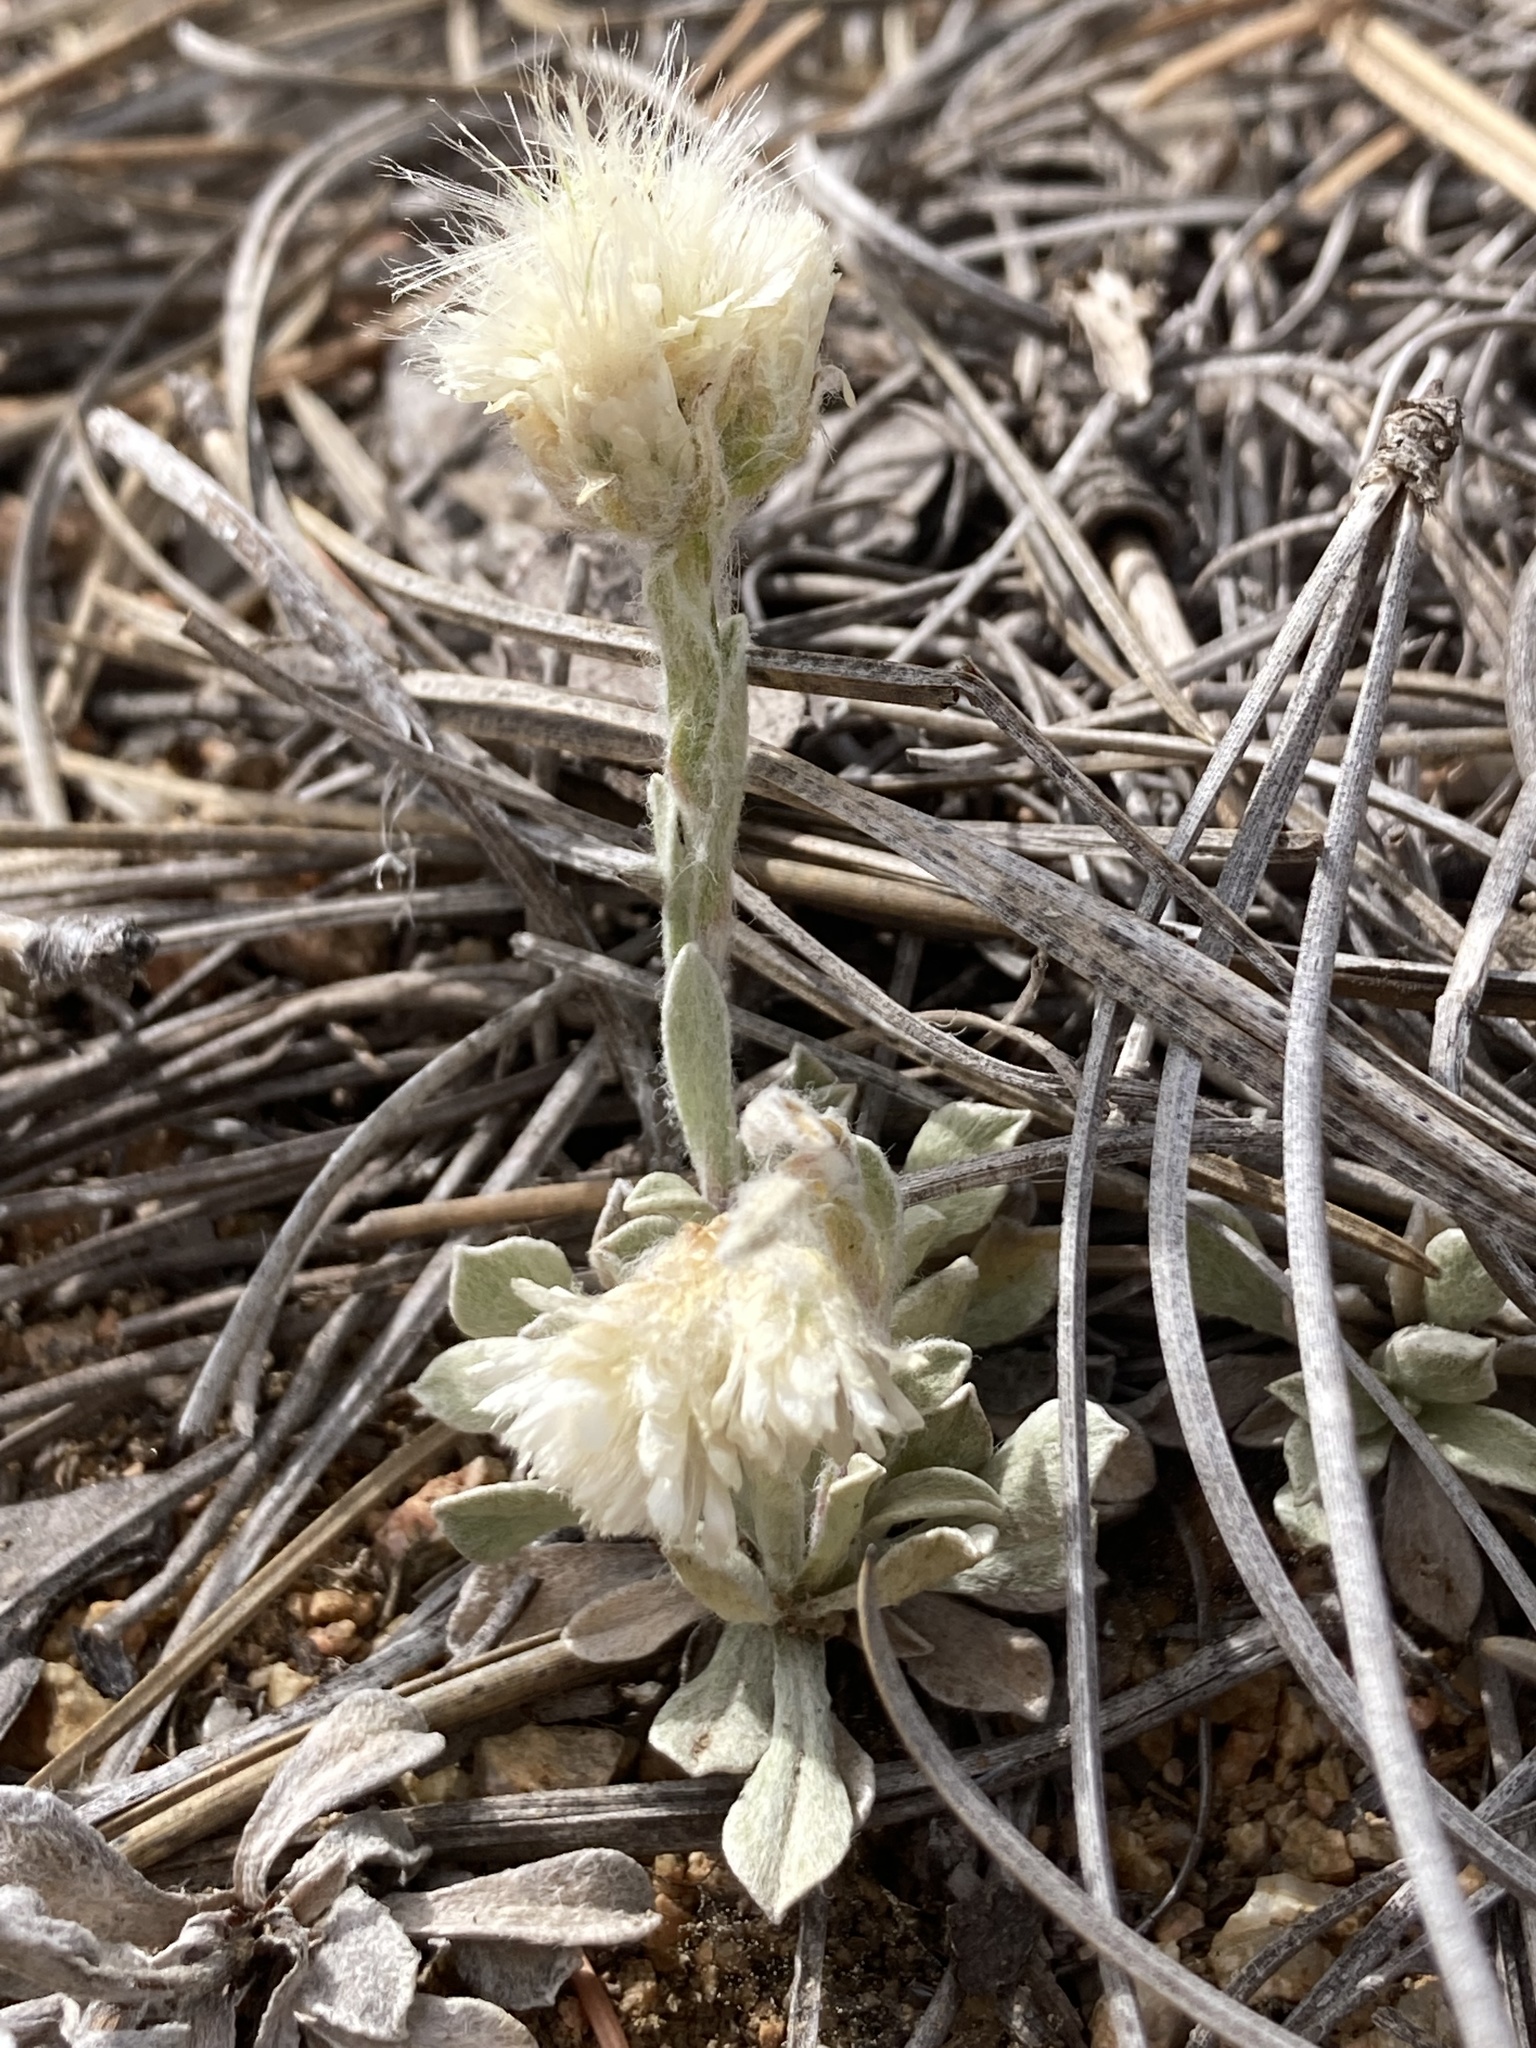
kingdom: Plantae
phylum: Tracheophyta
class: Magnoliopsida
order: Asterales
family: Asteraceae
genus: Antennaria
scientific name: Antennaria parvifolia
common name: Nuttall's pussytoes
